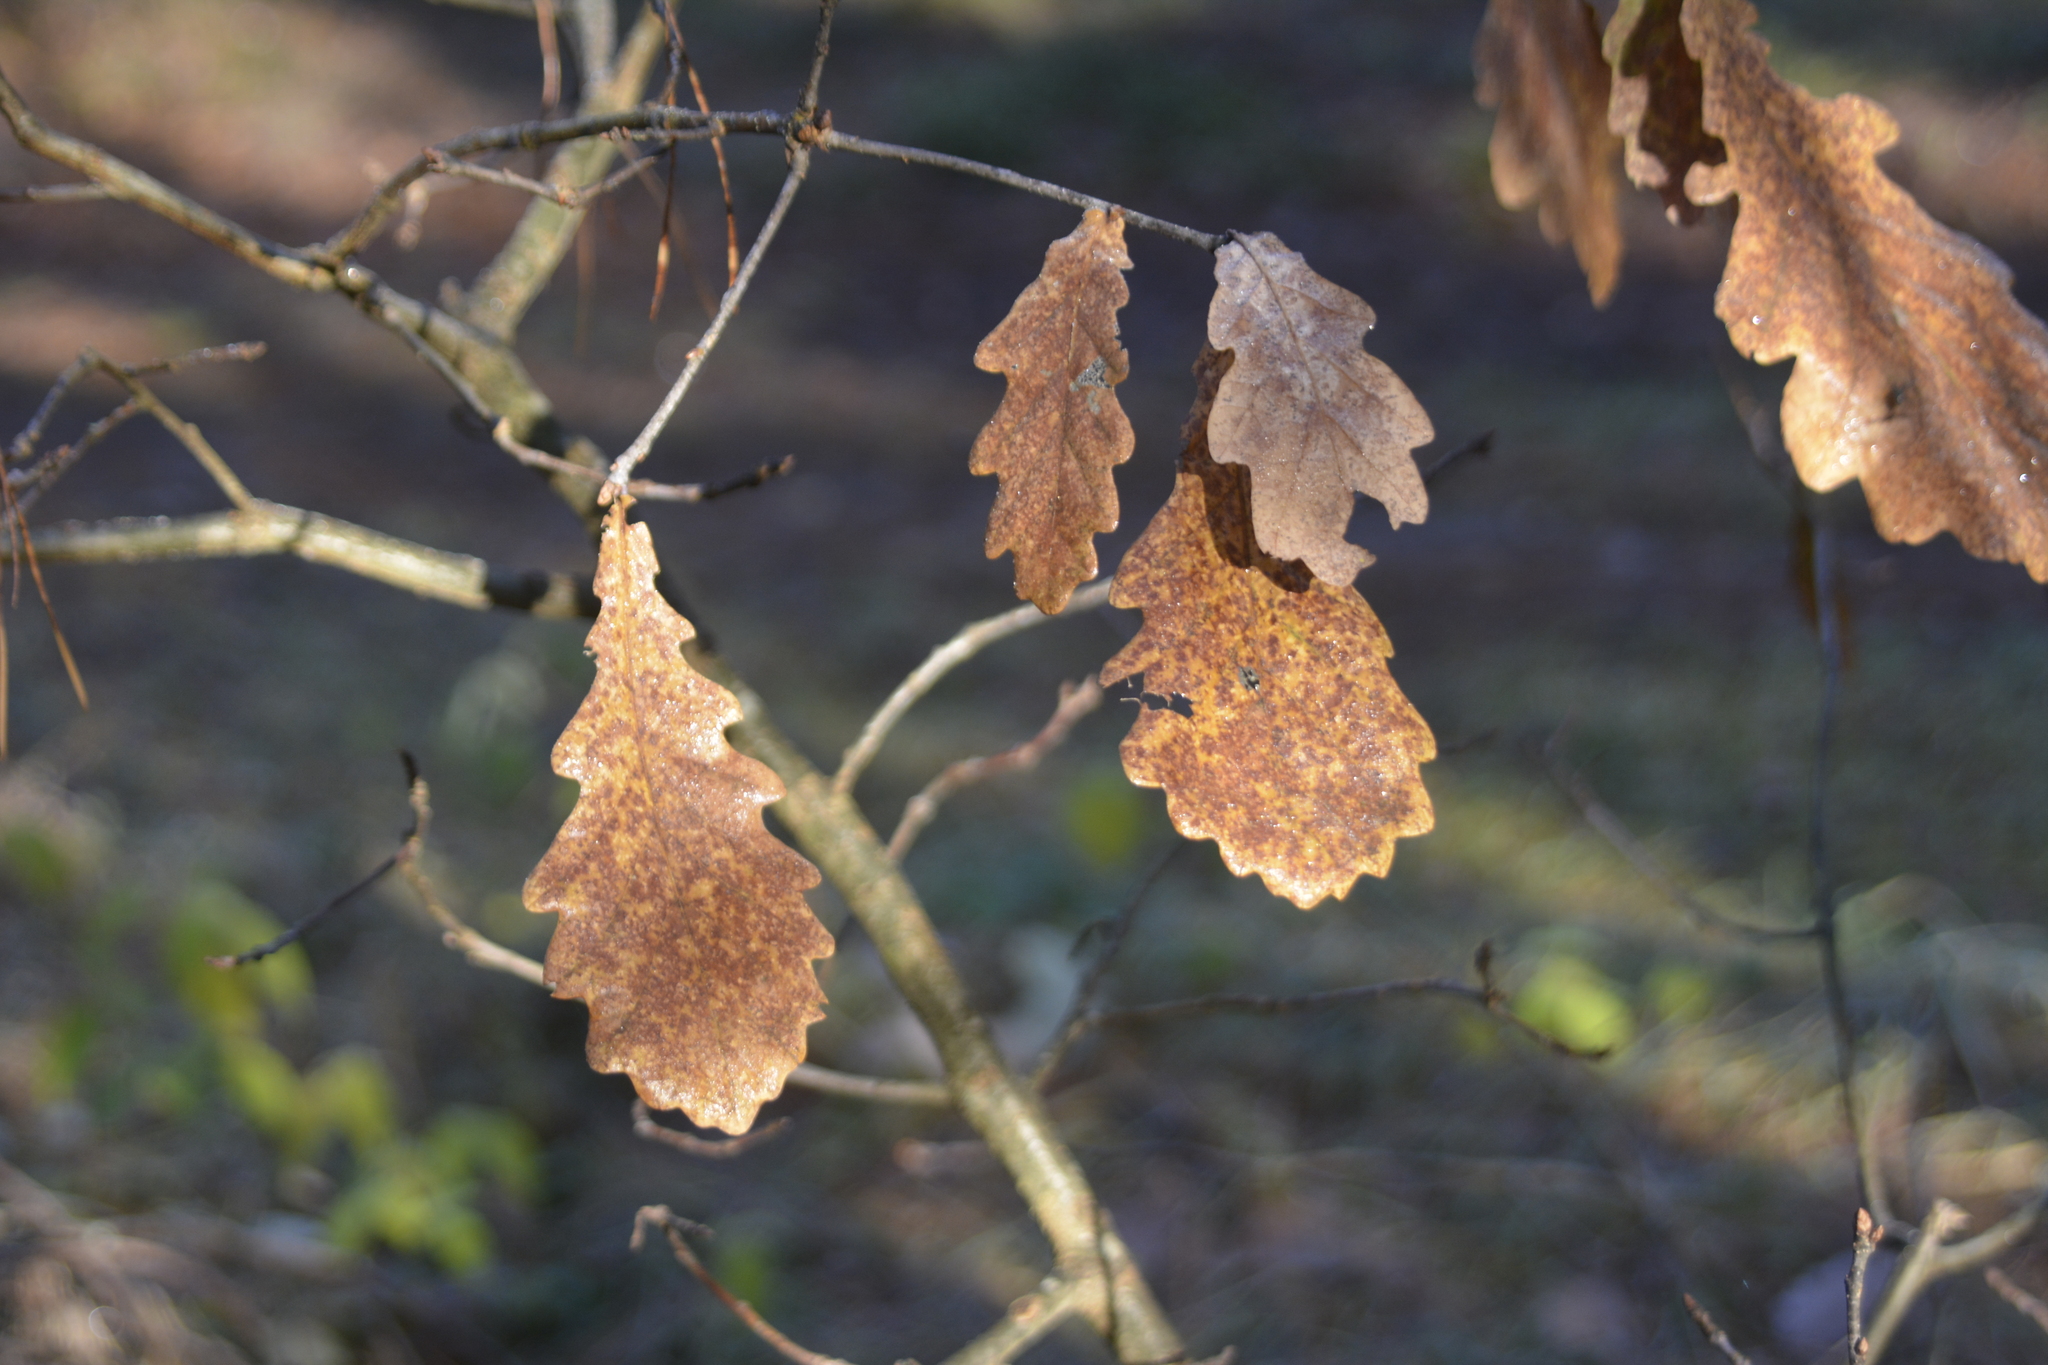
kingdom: Plantae
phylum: Tracheophyta
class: Magnoliopsida
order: Fagales
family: Fagaceae
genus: Quercus
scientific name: Quercus robur
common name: Pedunculate oak
